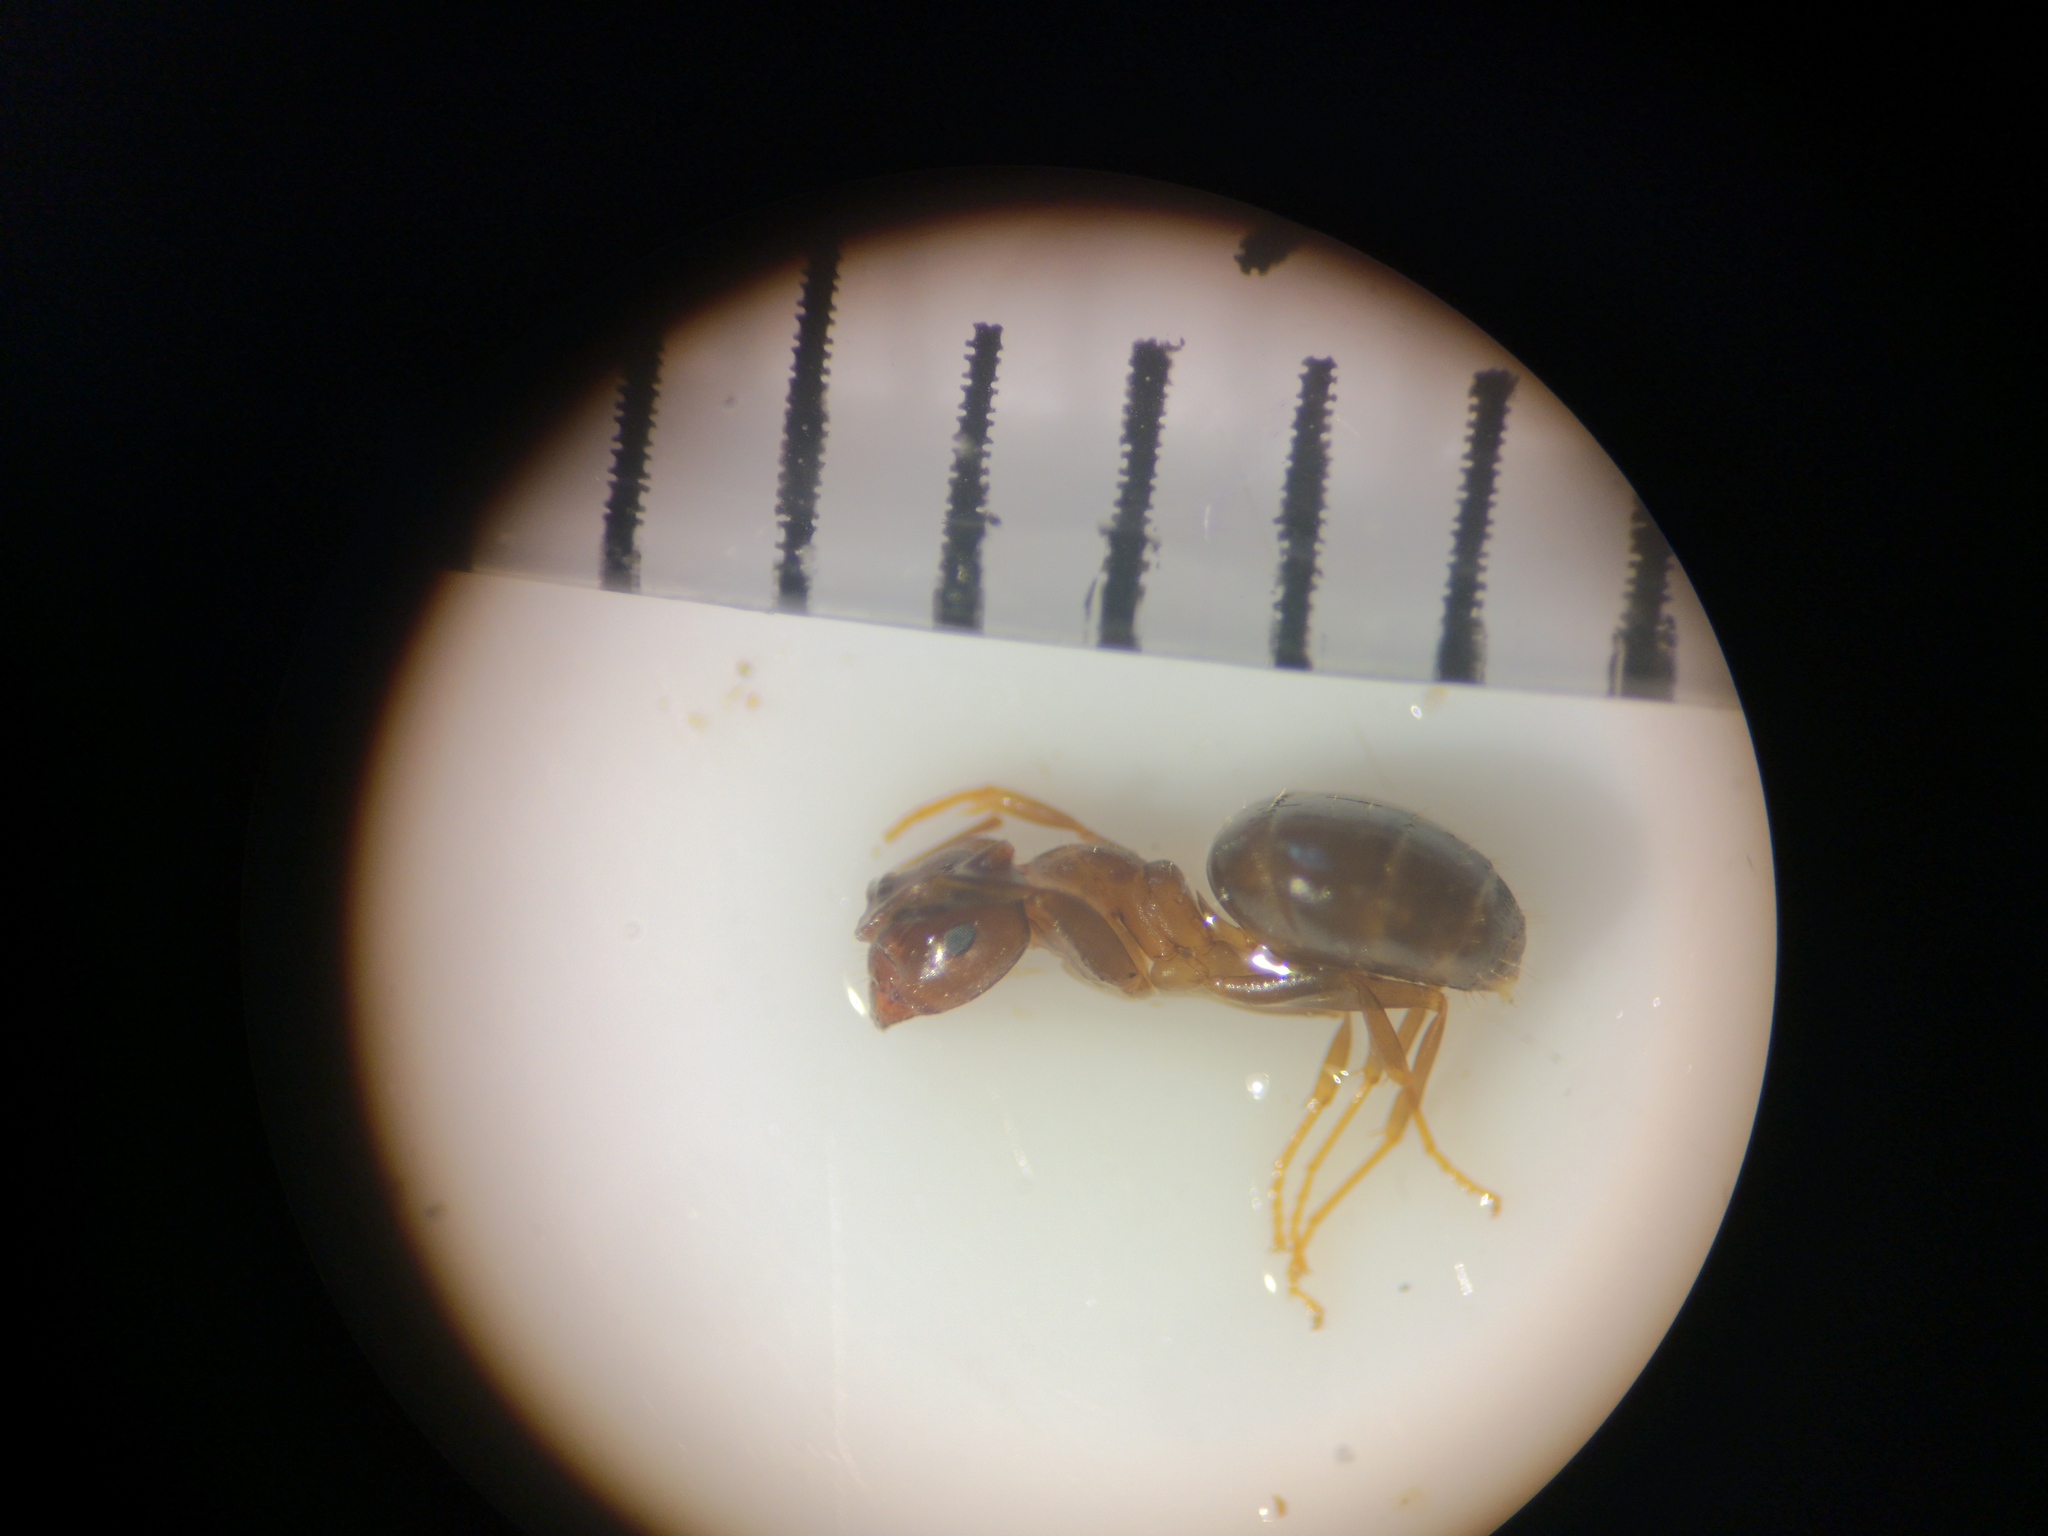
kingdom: Animalia
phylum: Arthropoda
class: Insecta
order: Hymenoptera
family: Formicidae
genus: Lasius
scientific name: Lasius brunneus
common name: Brown ant
